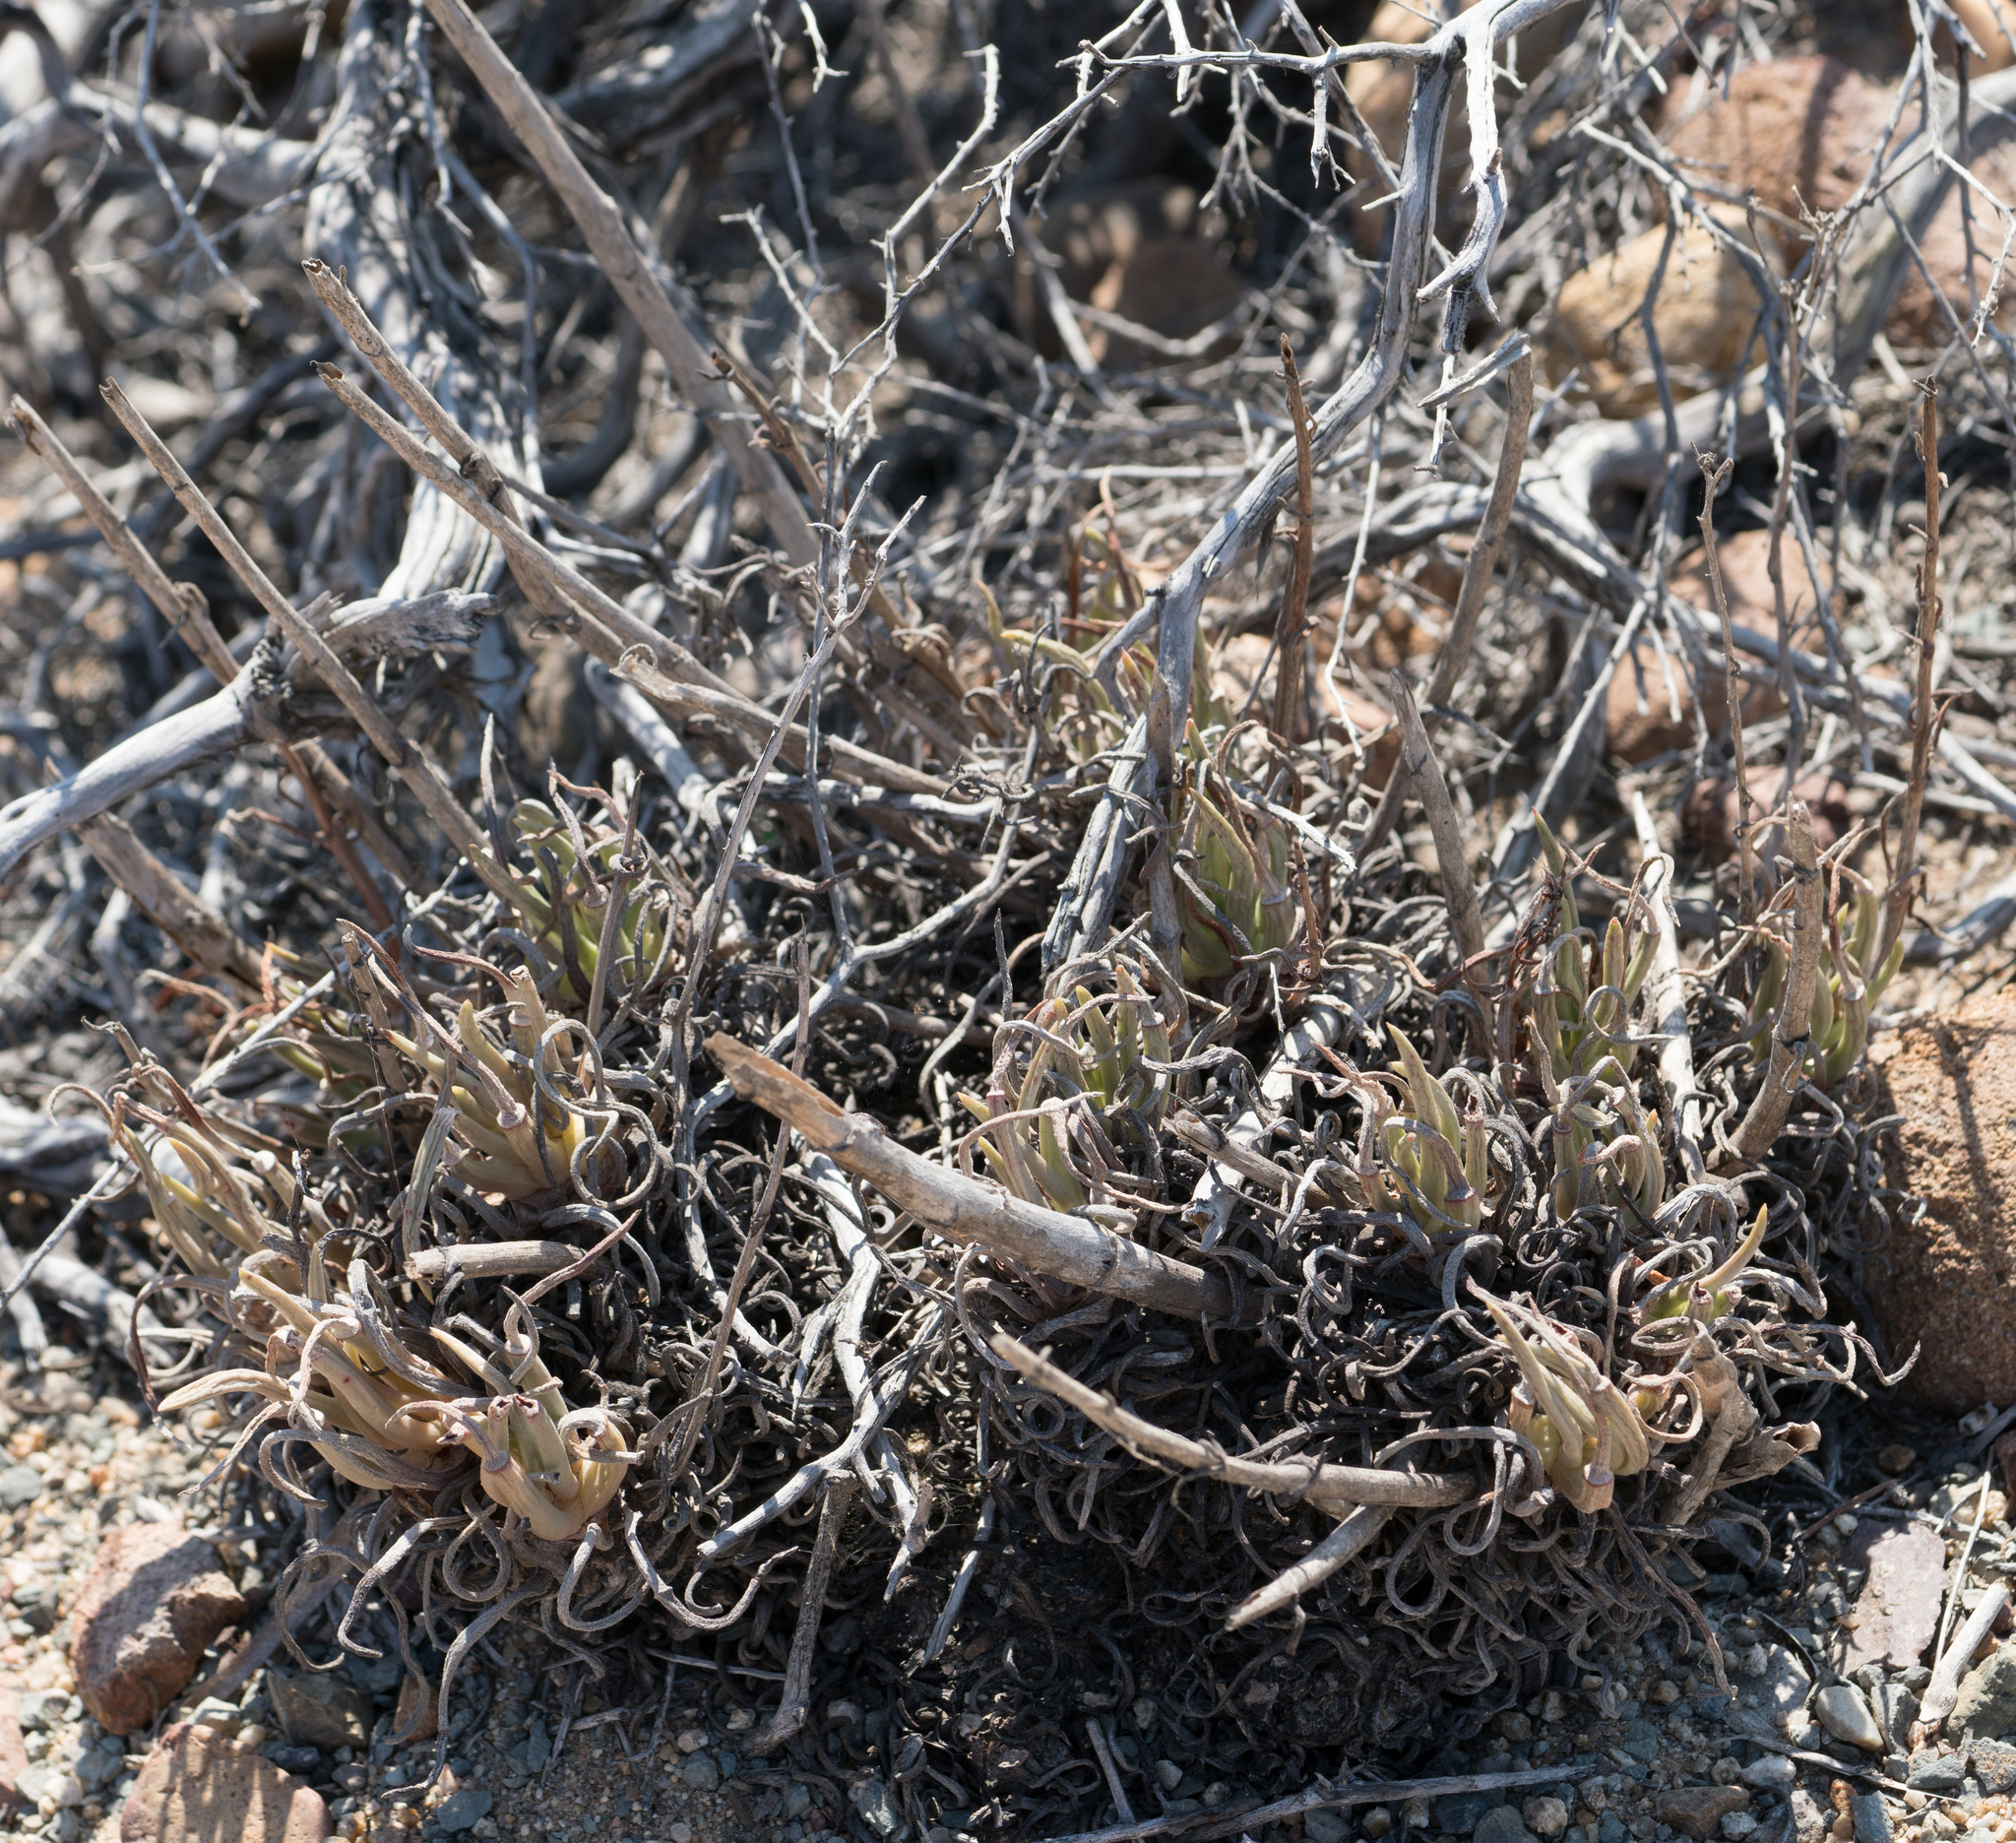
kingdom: Plantae
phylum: Tracheophyta
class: Magnoliopsida
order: Saxifragales
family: Crassulaceae
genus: Dudleya
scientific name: Dudleya edulis
